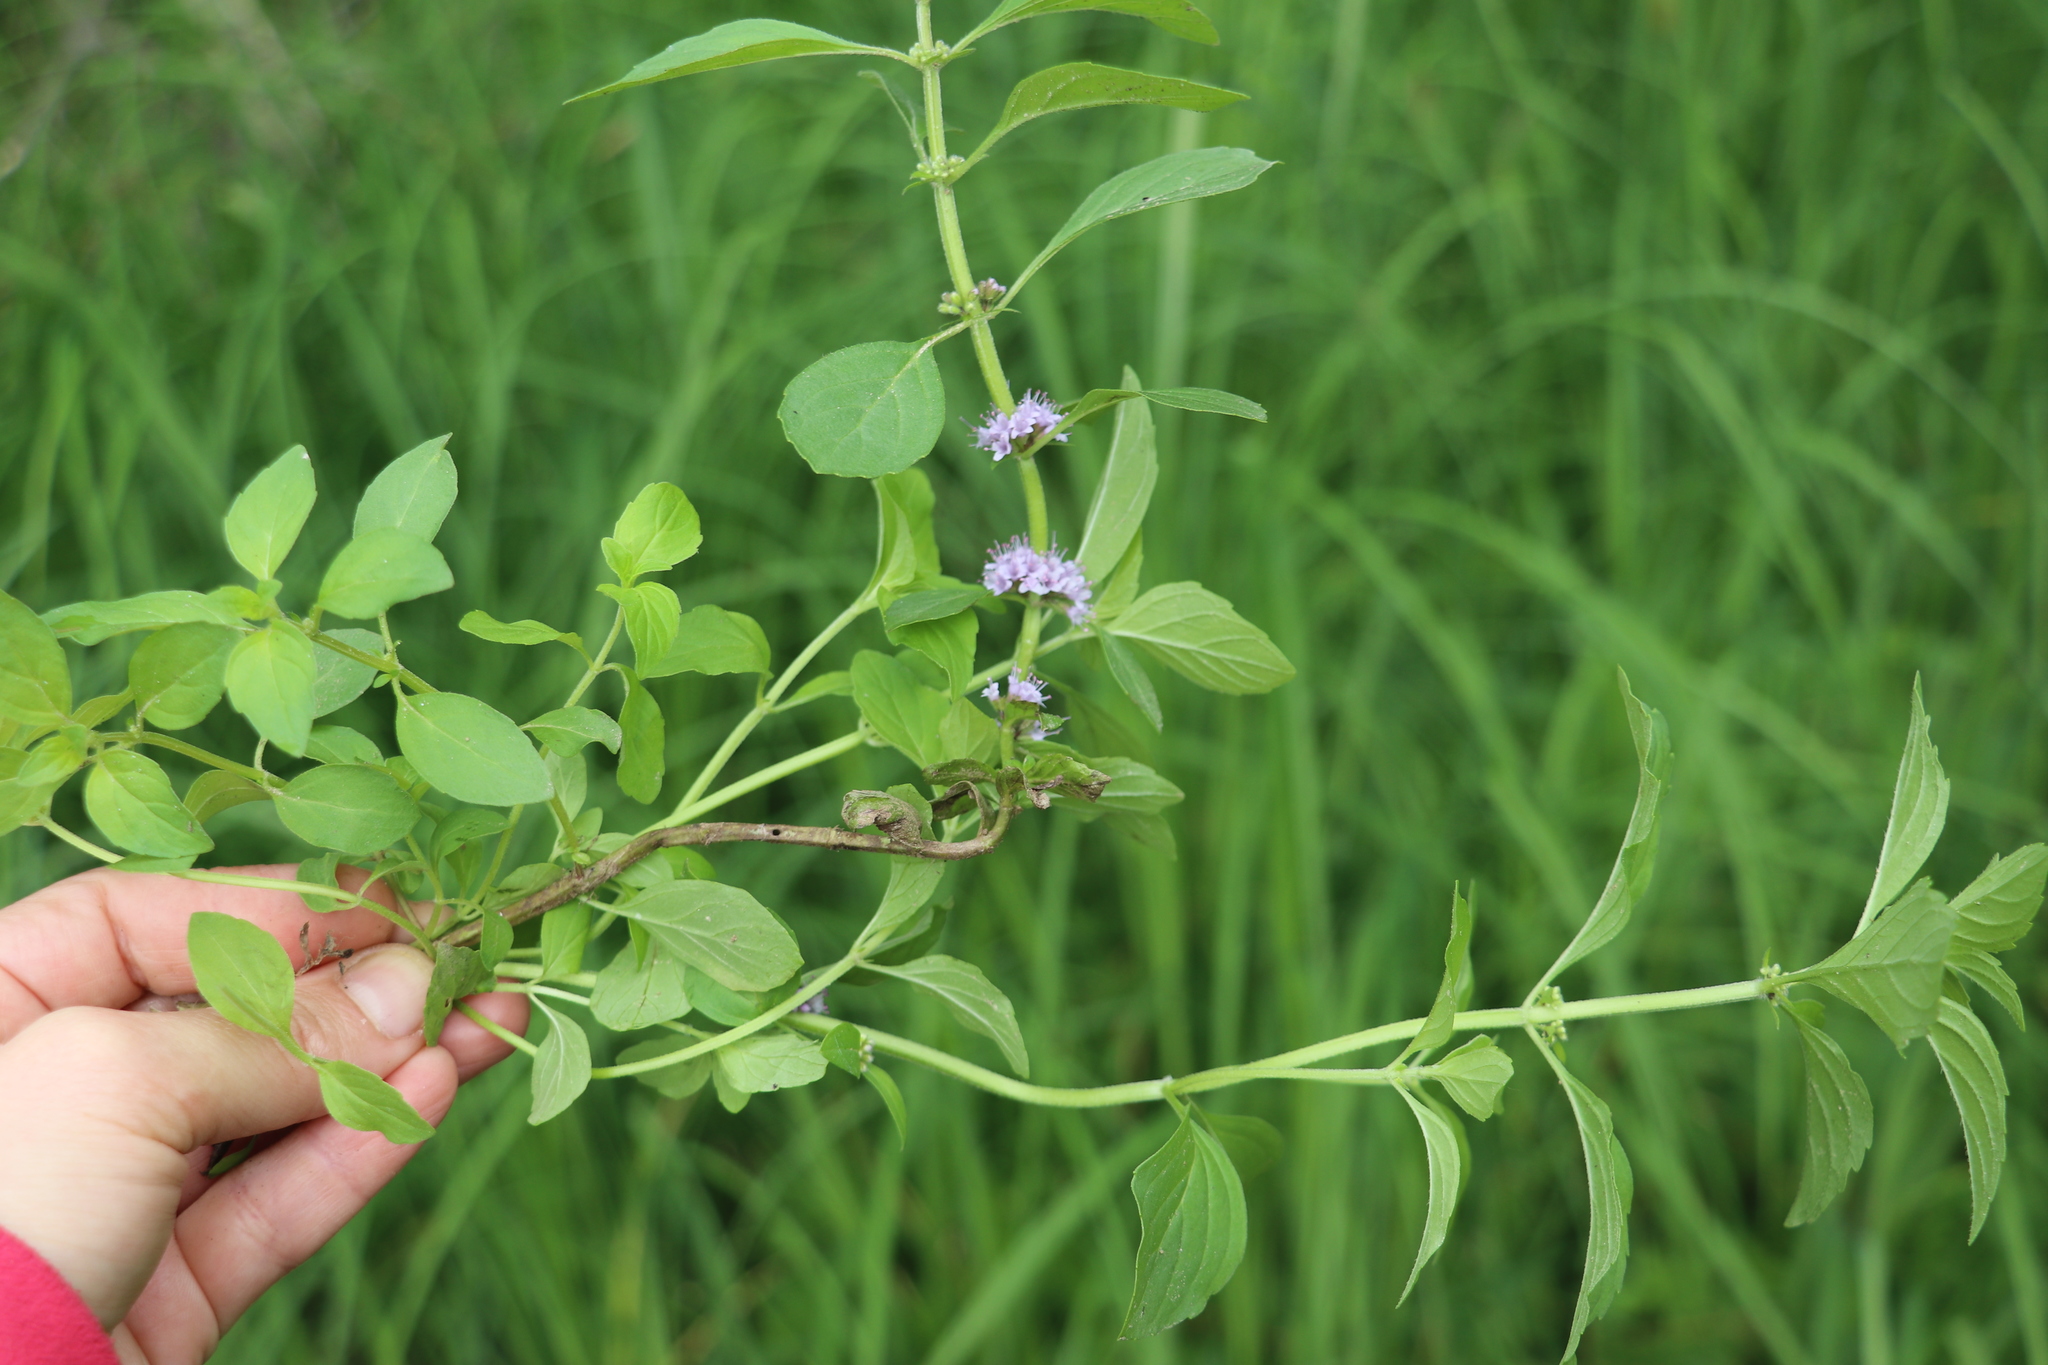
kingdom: Plantae
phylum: Tracheophyta
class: Magnoliopsida
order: Lamiales
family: Lamiaceae
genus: Mentha
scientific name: Mentha arvensis
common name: Corn mint
